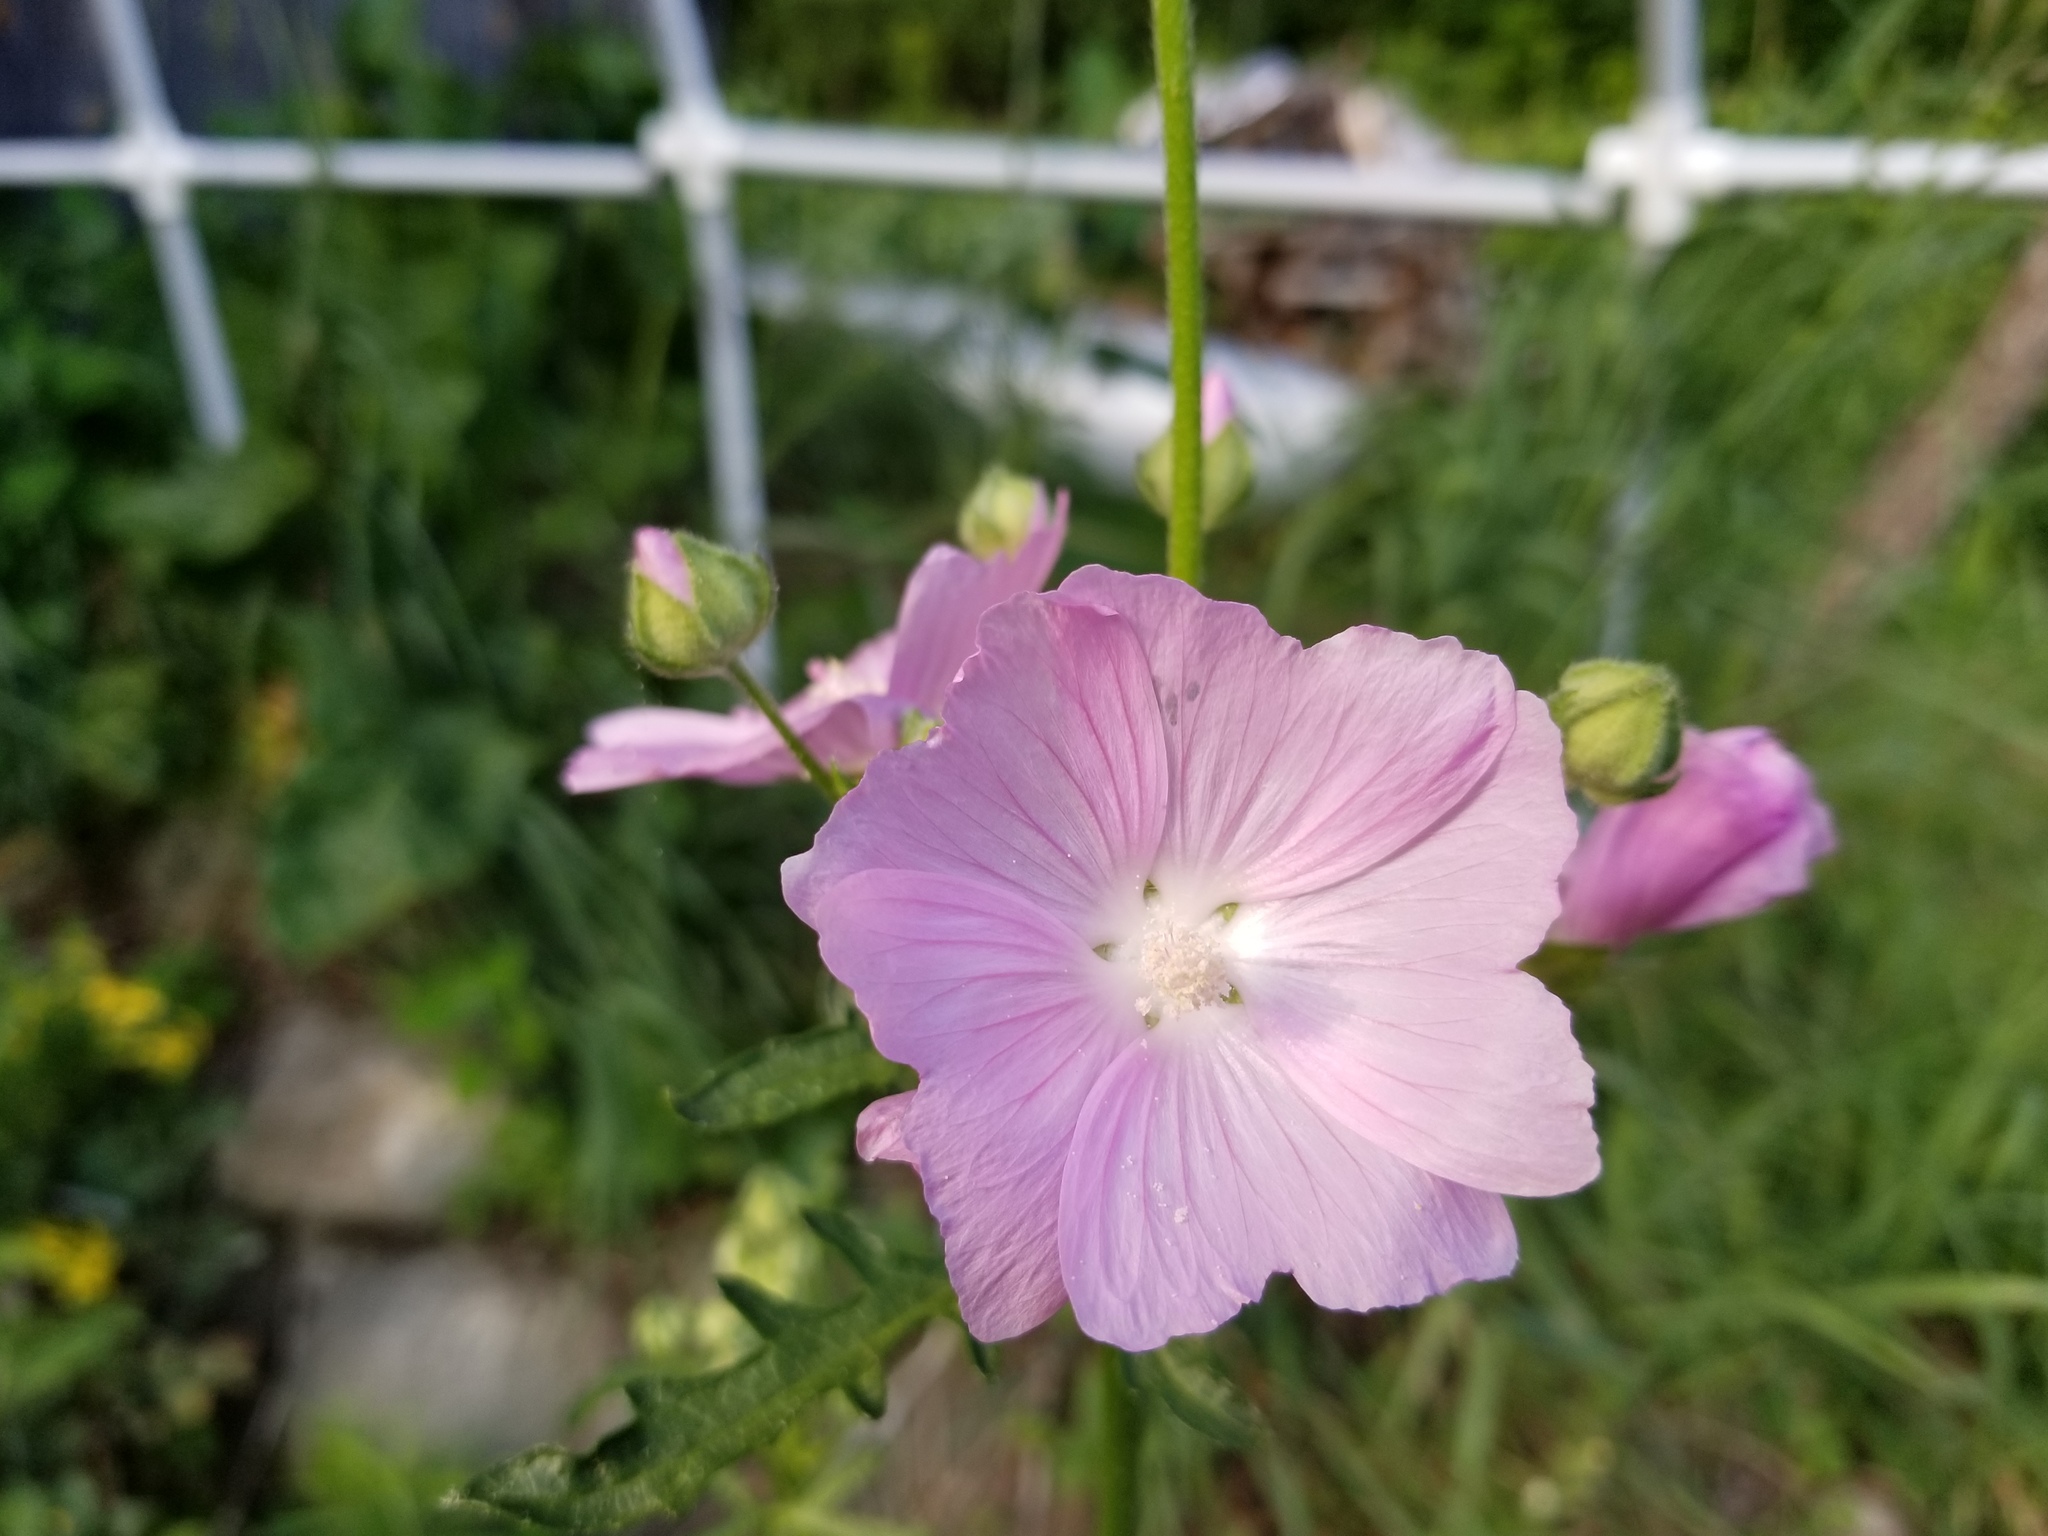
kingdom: Plantae
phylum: Tracheophyta
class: Magnoliopsida
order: Malvales
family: Malvaceae
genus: Malva
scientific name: Malva moschata
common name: Musk mallow
